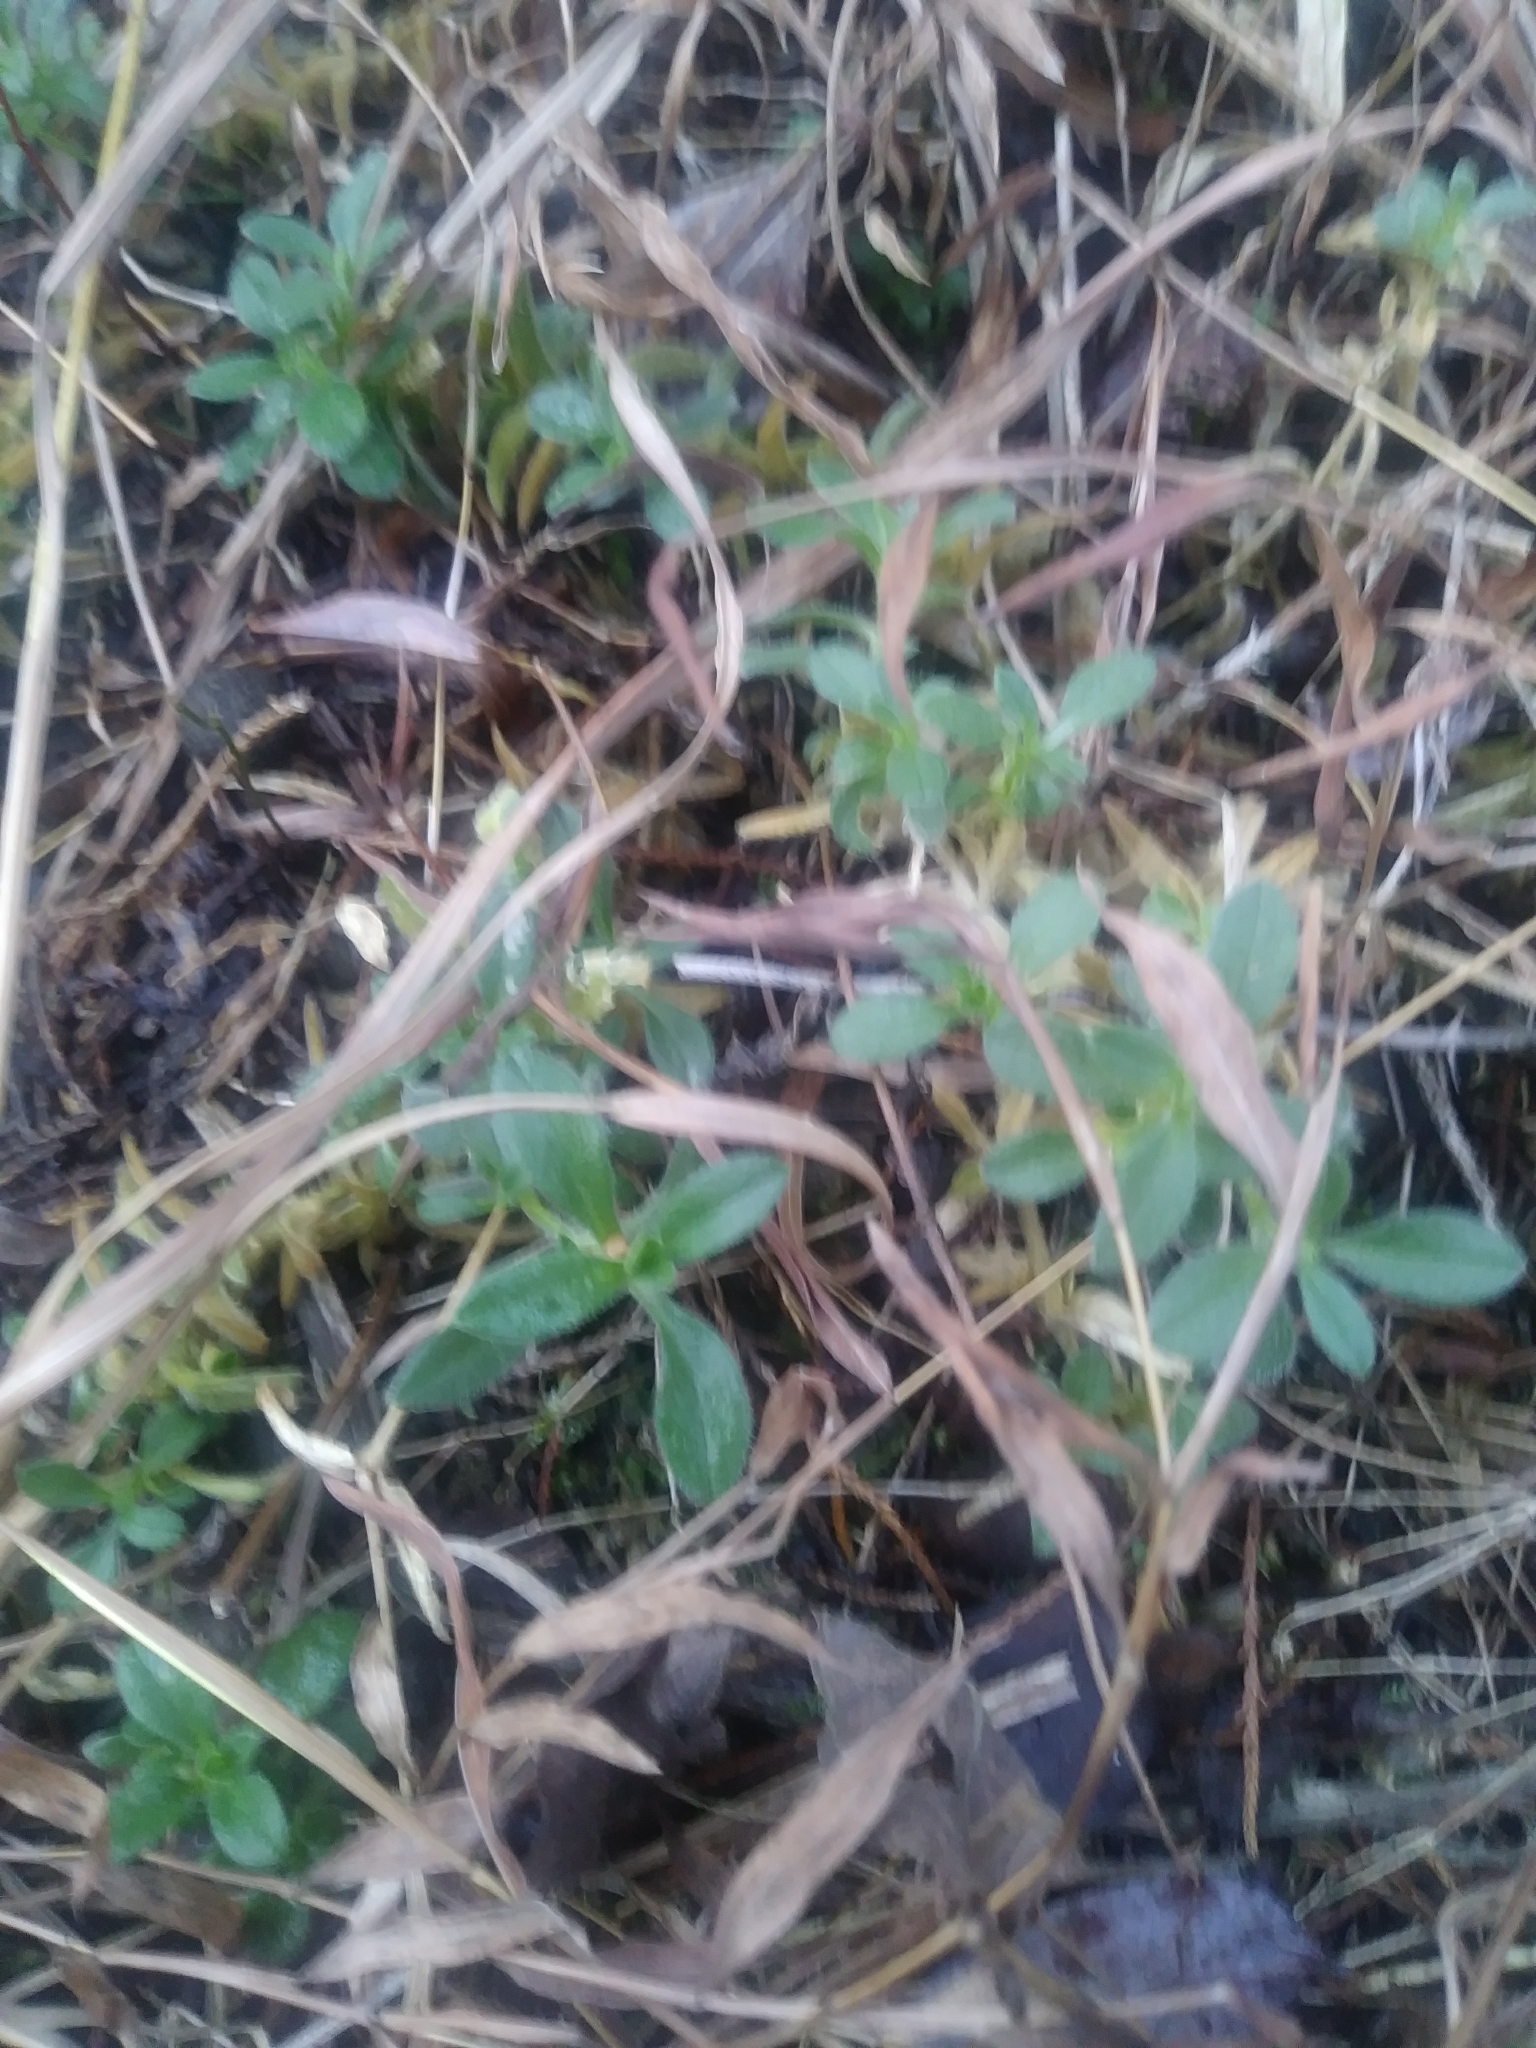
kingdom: Plantae
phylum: Tracheophyta
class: Magnoliopsida
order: Caryophyllales
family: Caryophyllaceae
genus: Cerastium
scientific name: Cerastium velutinum
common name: Barren chickweed
